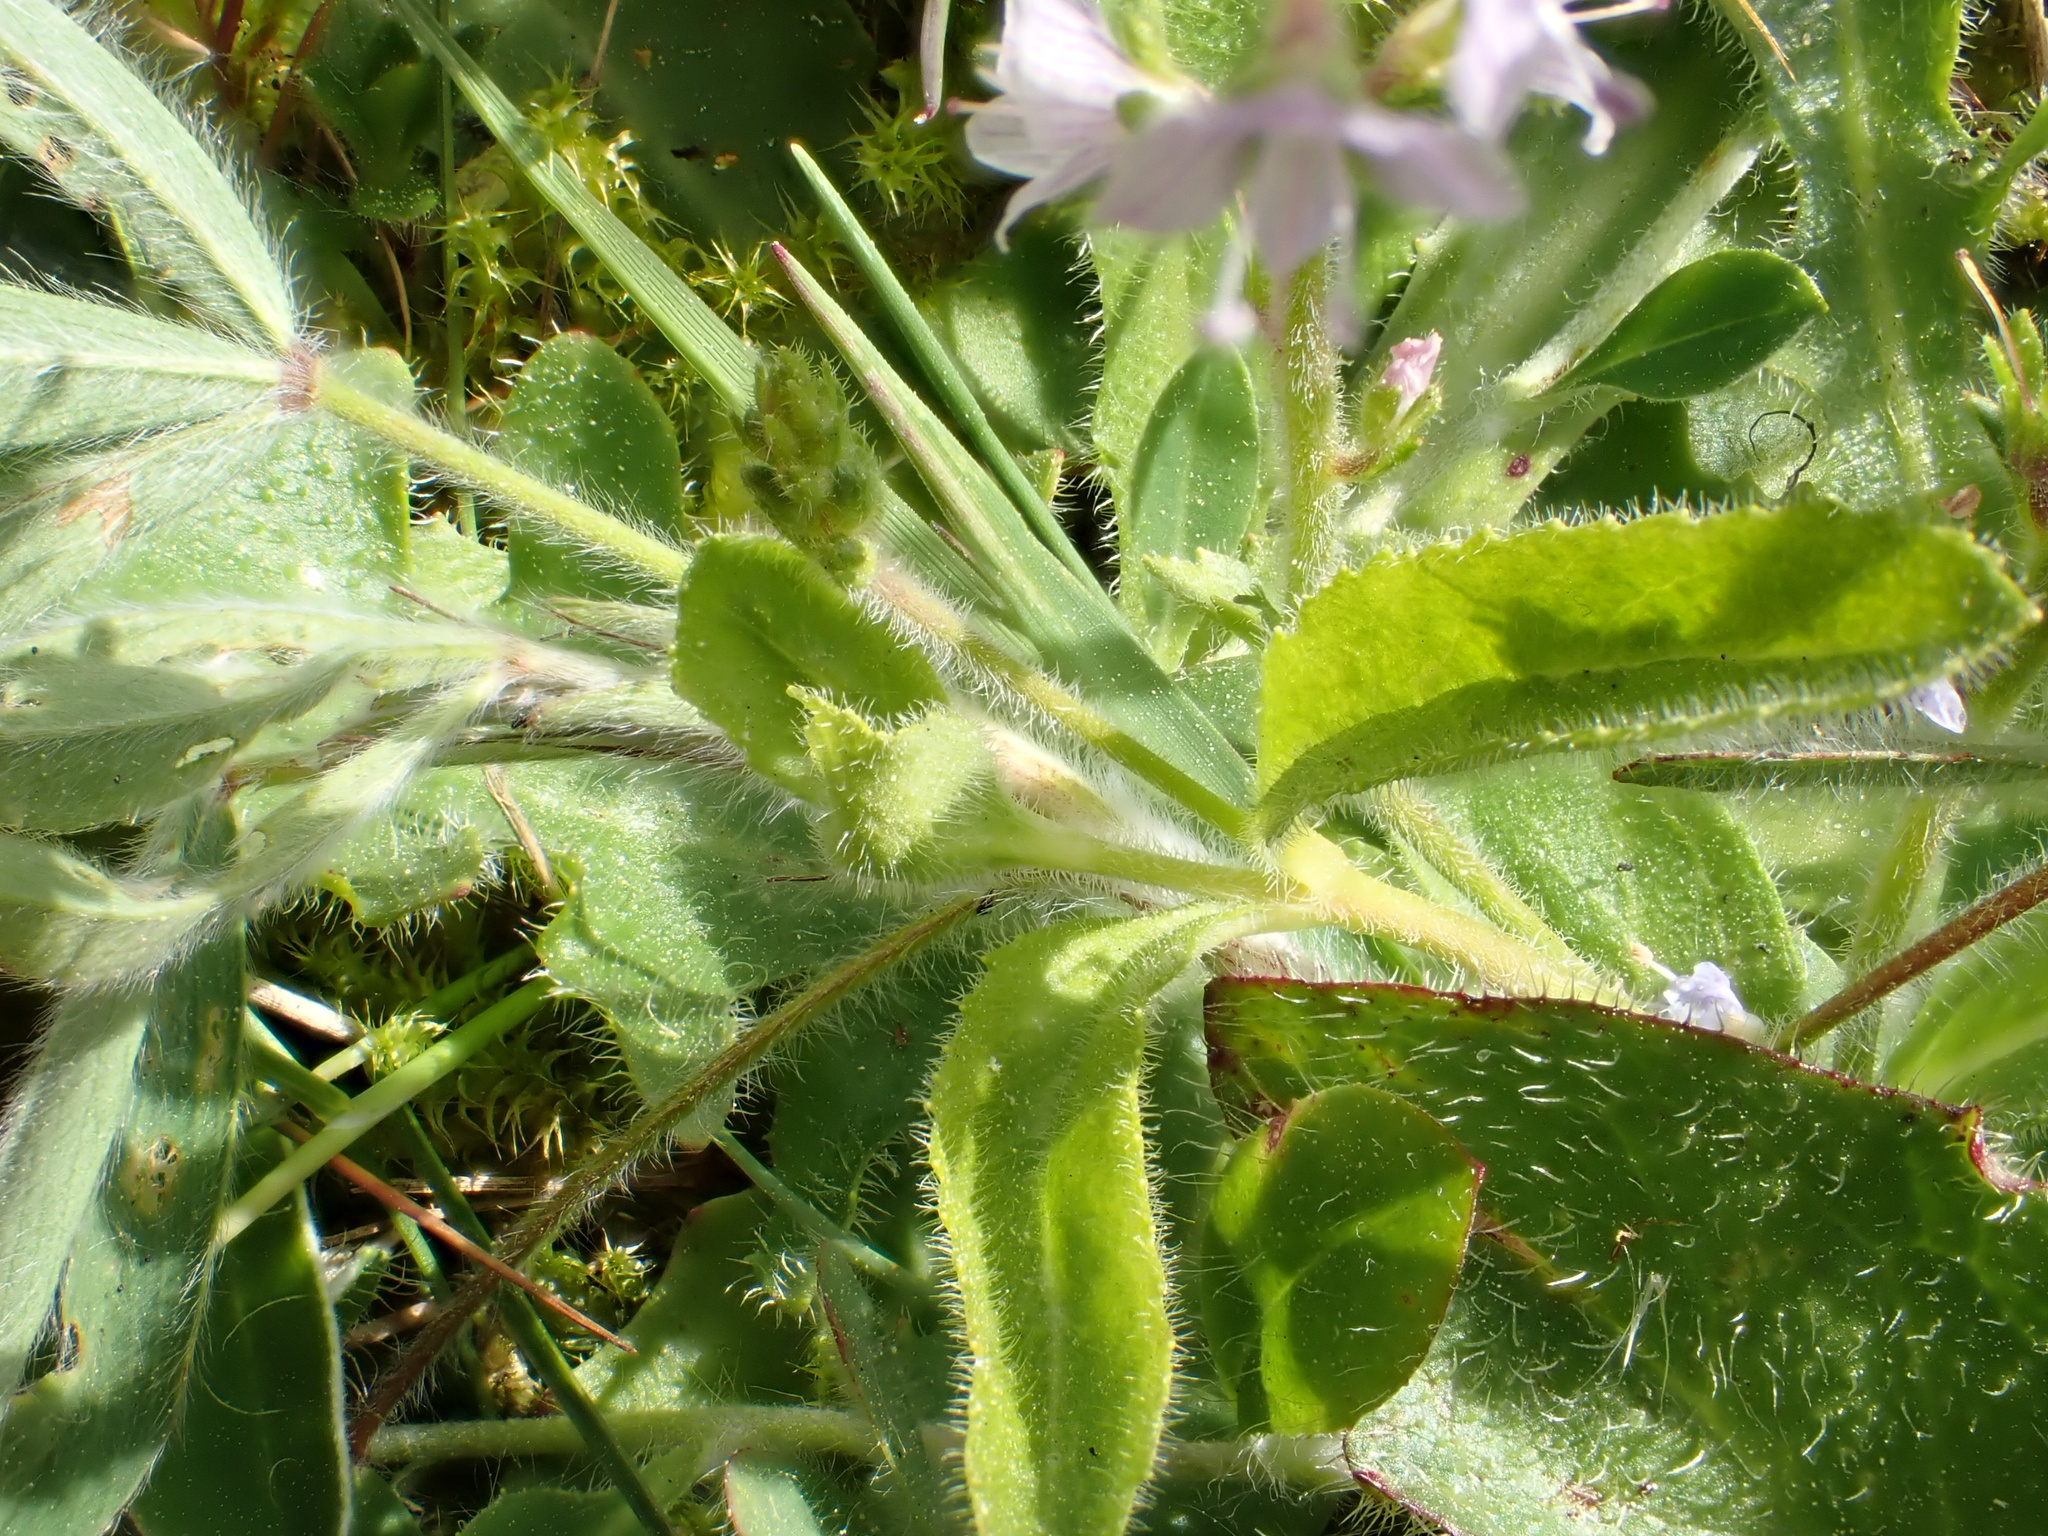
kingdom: Plantae
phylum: Tracheophyta
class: Magnoliopsida
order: Lamiales
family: Plantaginaceae
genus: Veronica
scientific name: Veronica officinalis
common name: Common speedwell
